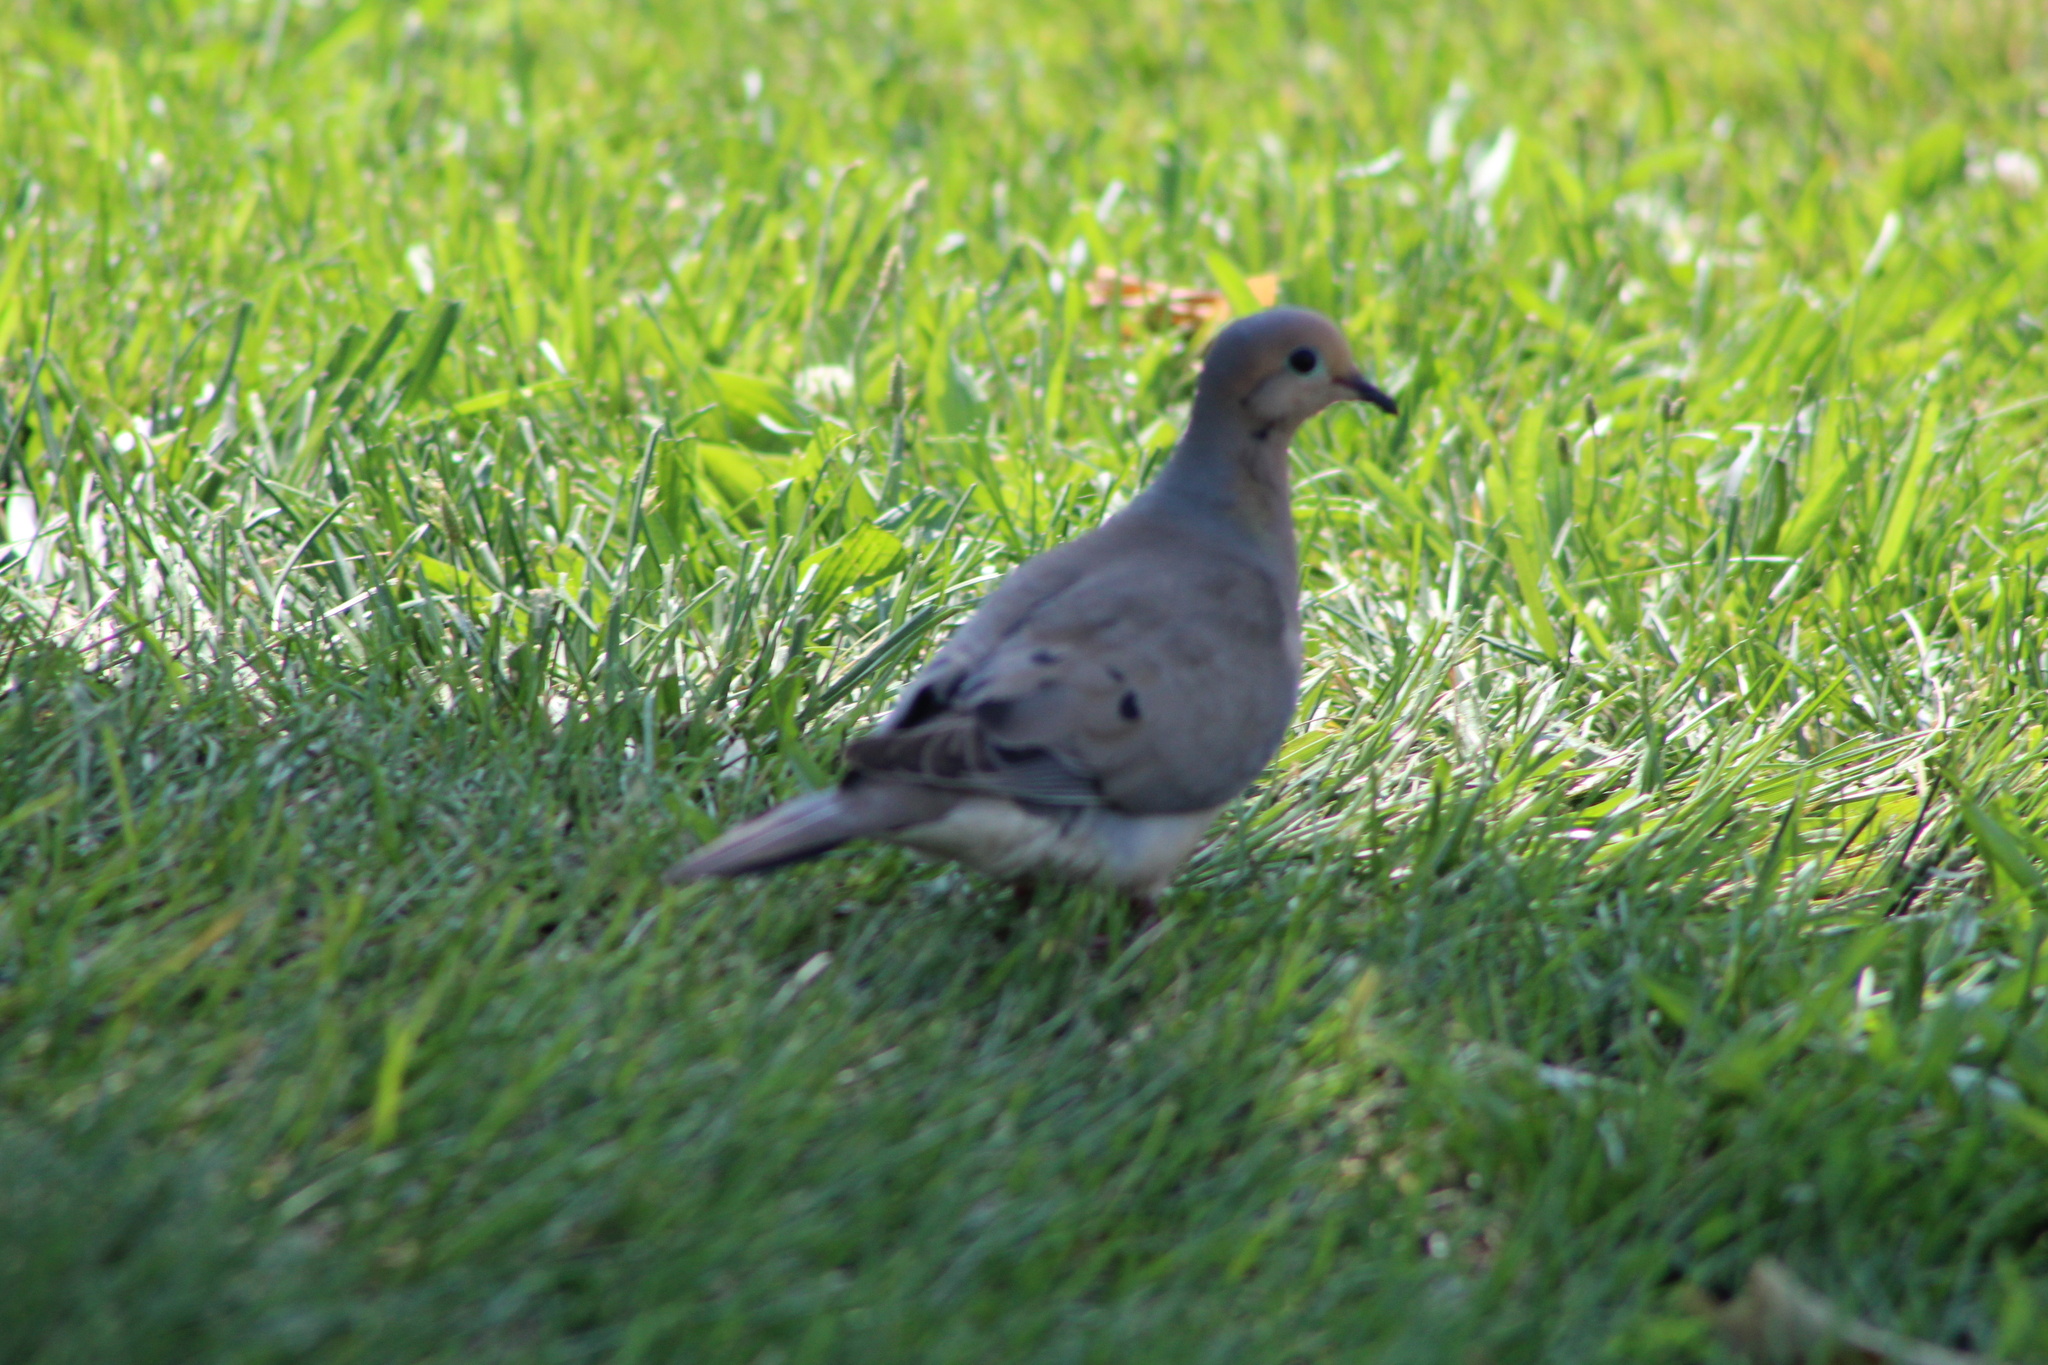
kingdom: Animalia
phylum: Chordata
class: Aves
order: Columbiformes
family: Columbidae
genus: Zenaida
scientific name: Zenaida macroura
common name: Mourning dove
